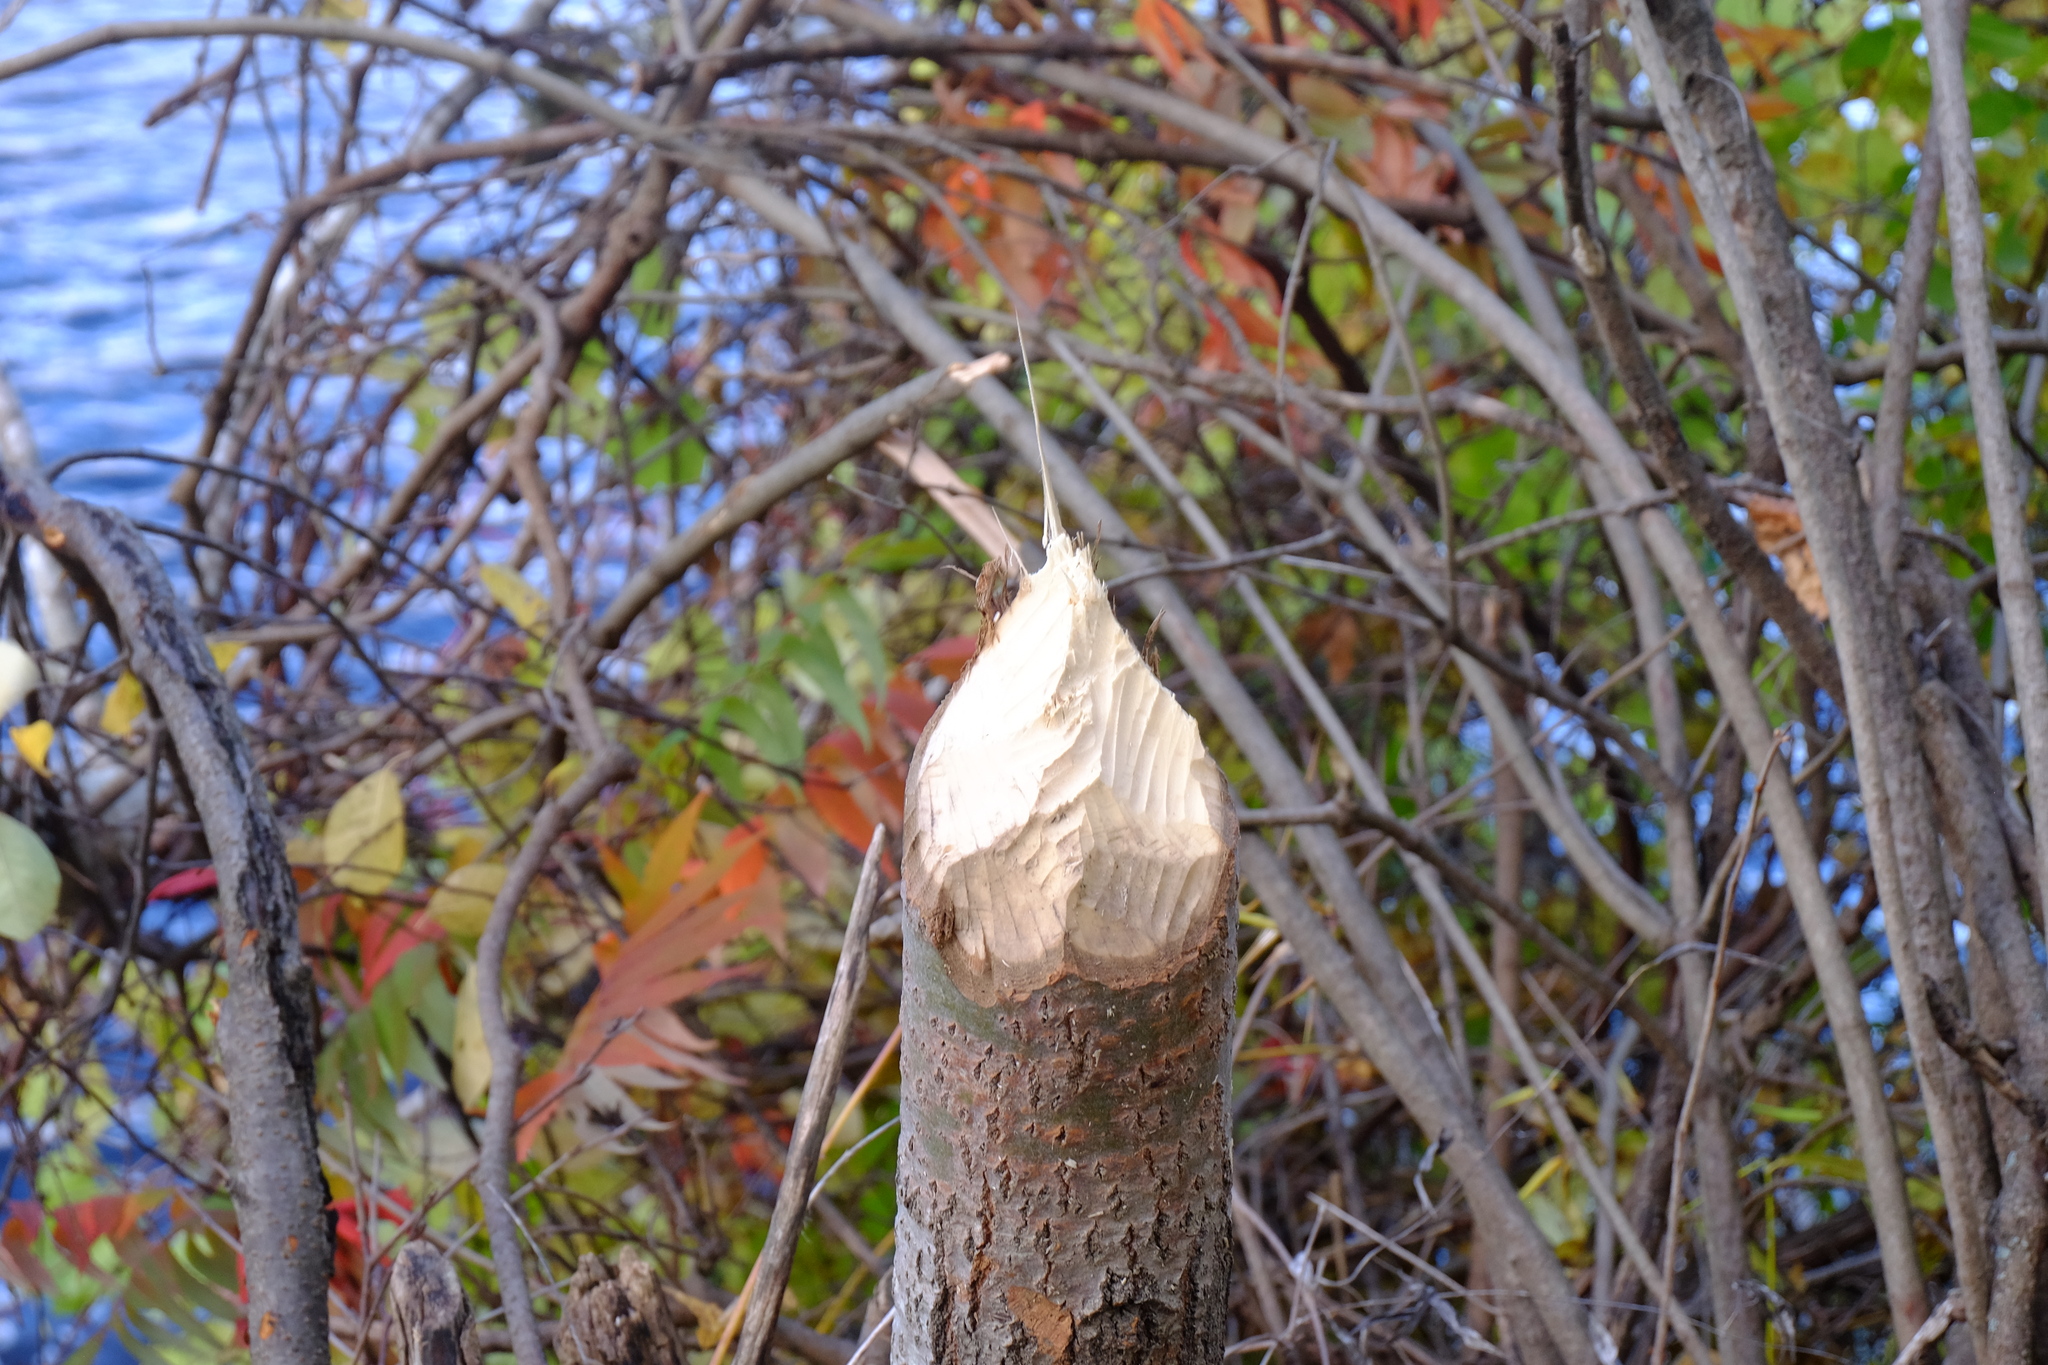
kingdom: Animalia
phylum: Chordata
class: Mammalia
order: Rodentia
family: Castoridae
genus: Castor
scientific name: Castor canadensis
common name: American beaver
